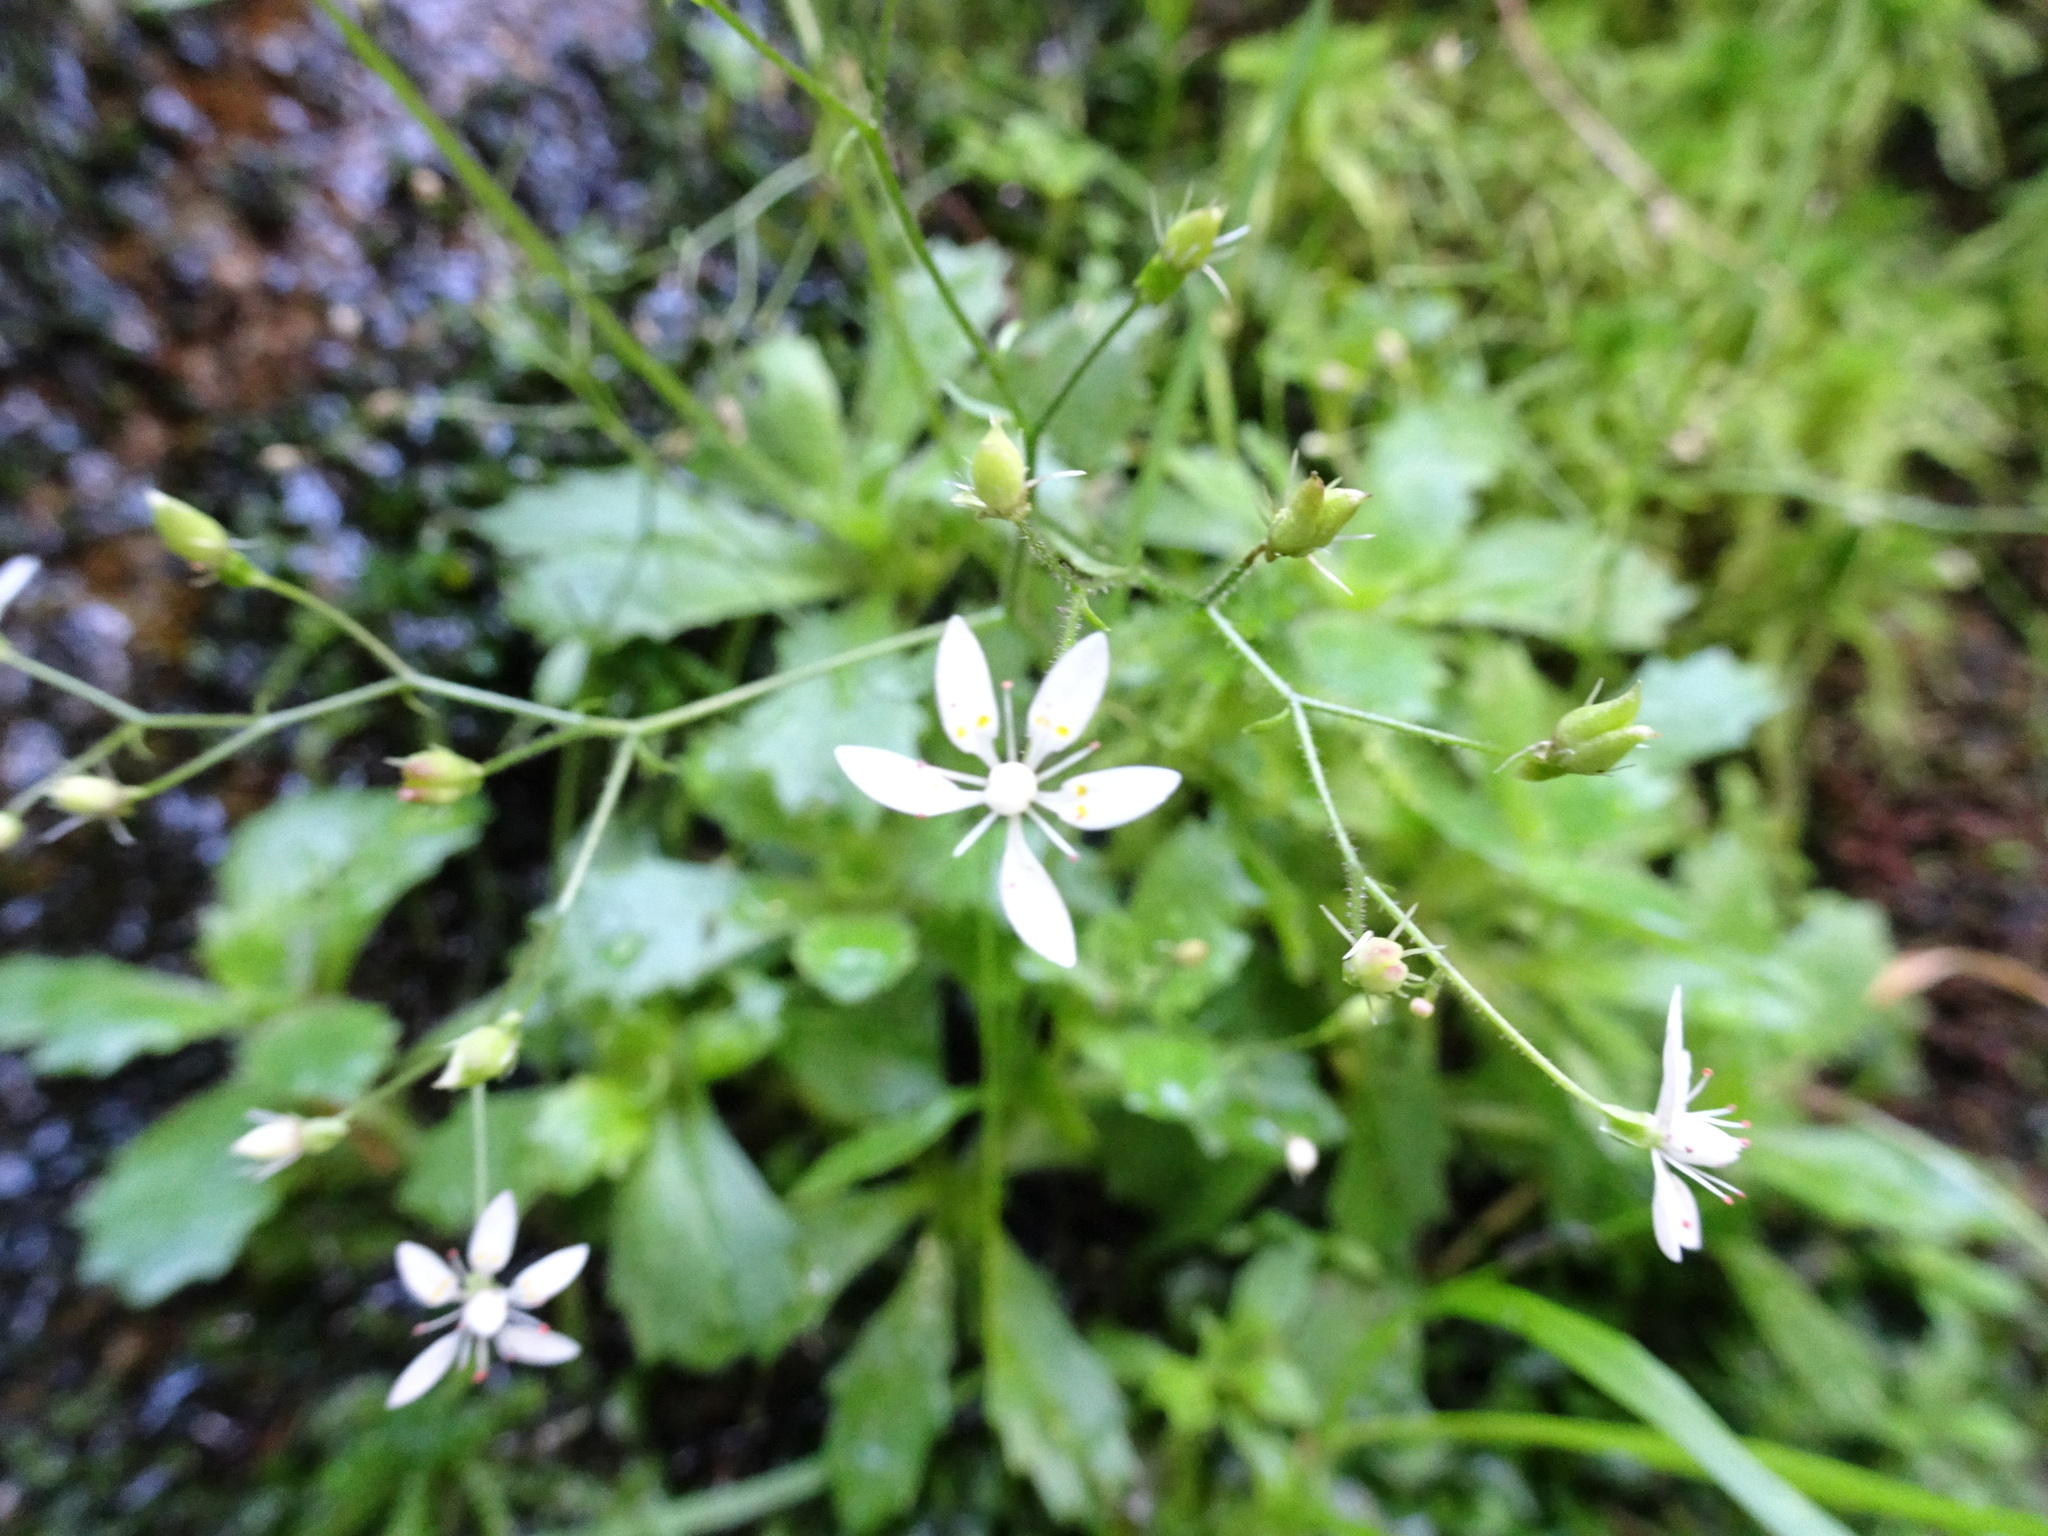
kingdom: Plantae
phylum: Tracheophyta
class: Magnoliopsida
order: Saxifragales
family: Saxifragaceae
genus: Micranthes
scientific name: Micranthes stellaris
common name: Starry saxifrage
